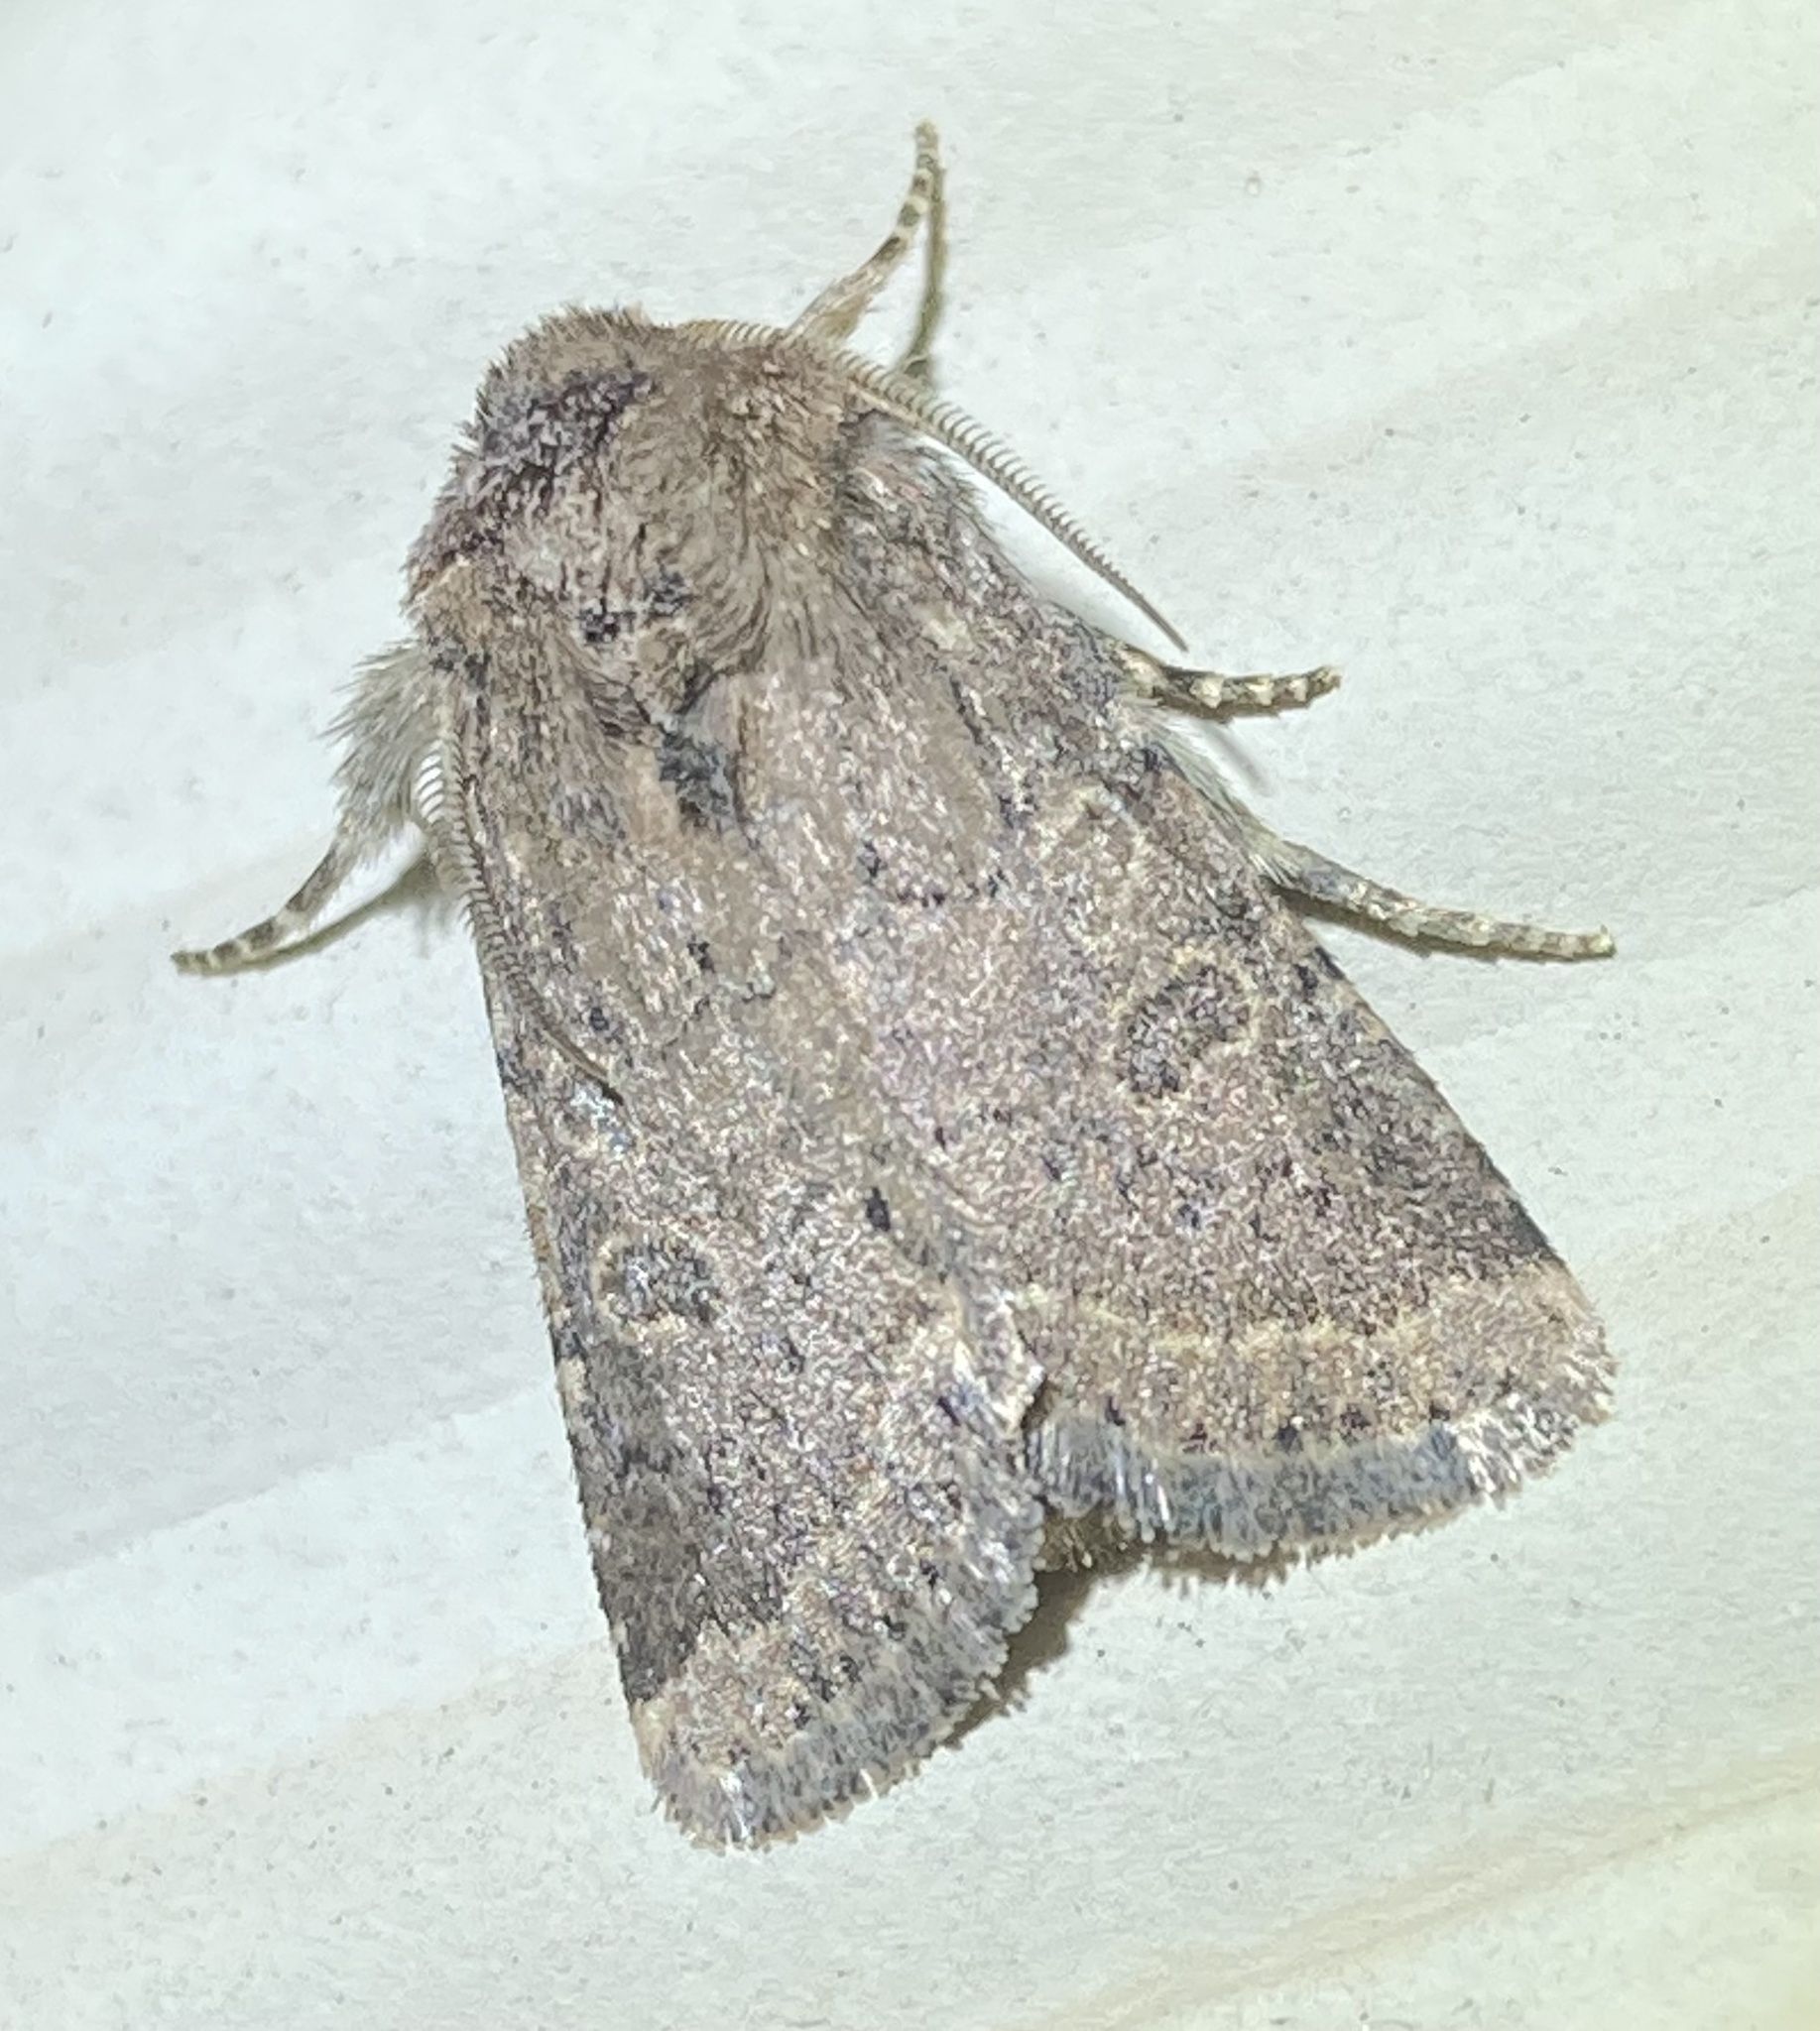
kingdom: Animalia
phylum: Arthropoda
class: Insecta
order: Lepidoptera
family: Notodontidae
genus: Gluphisia
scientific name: Gluphisia septentrionis
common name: Common gluphisia
